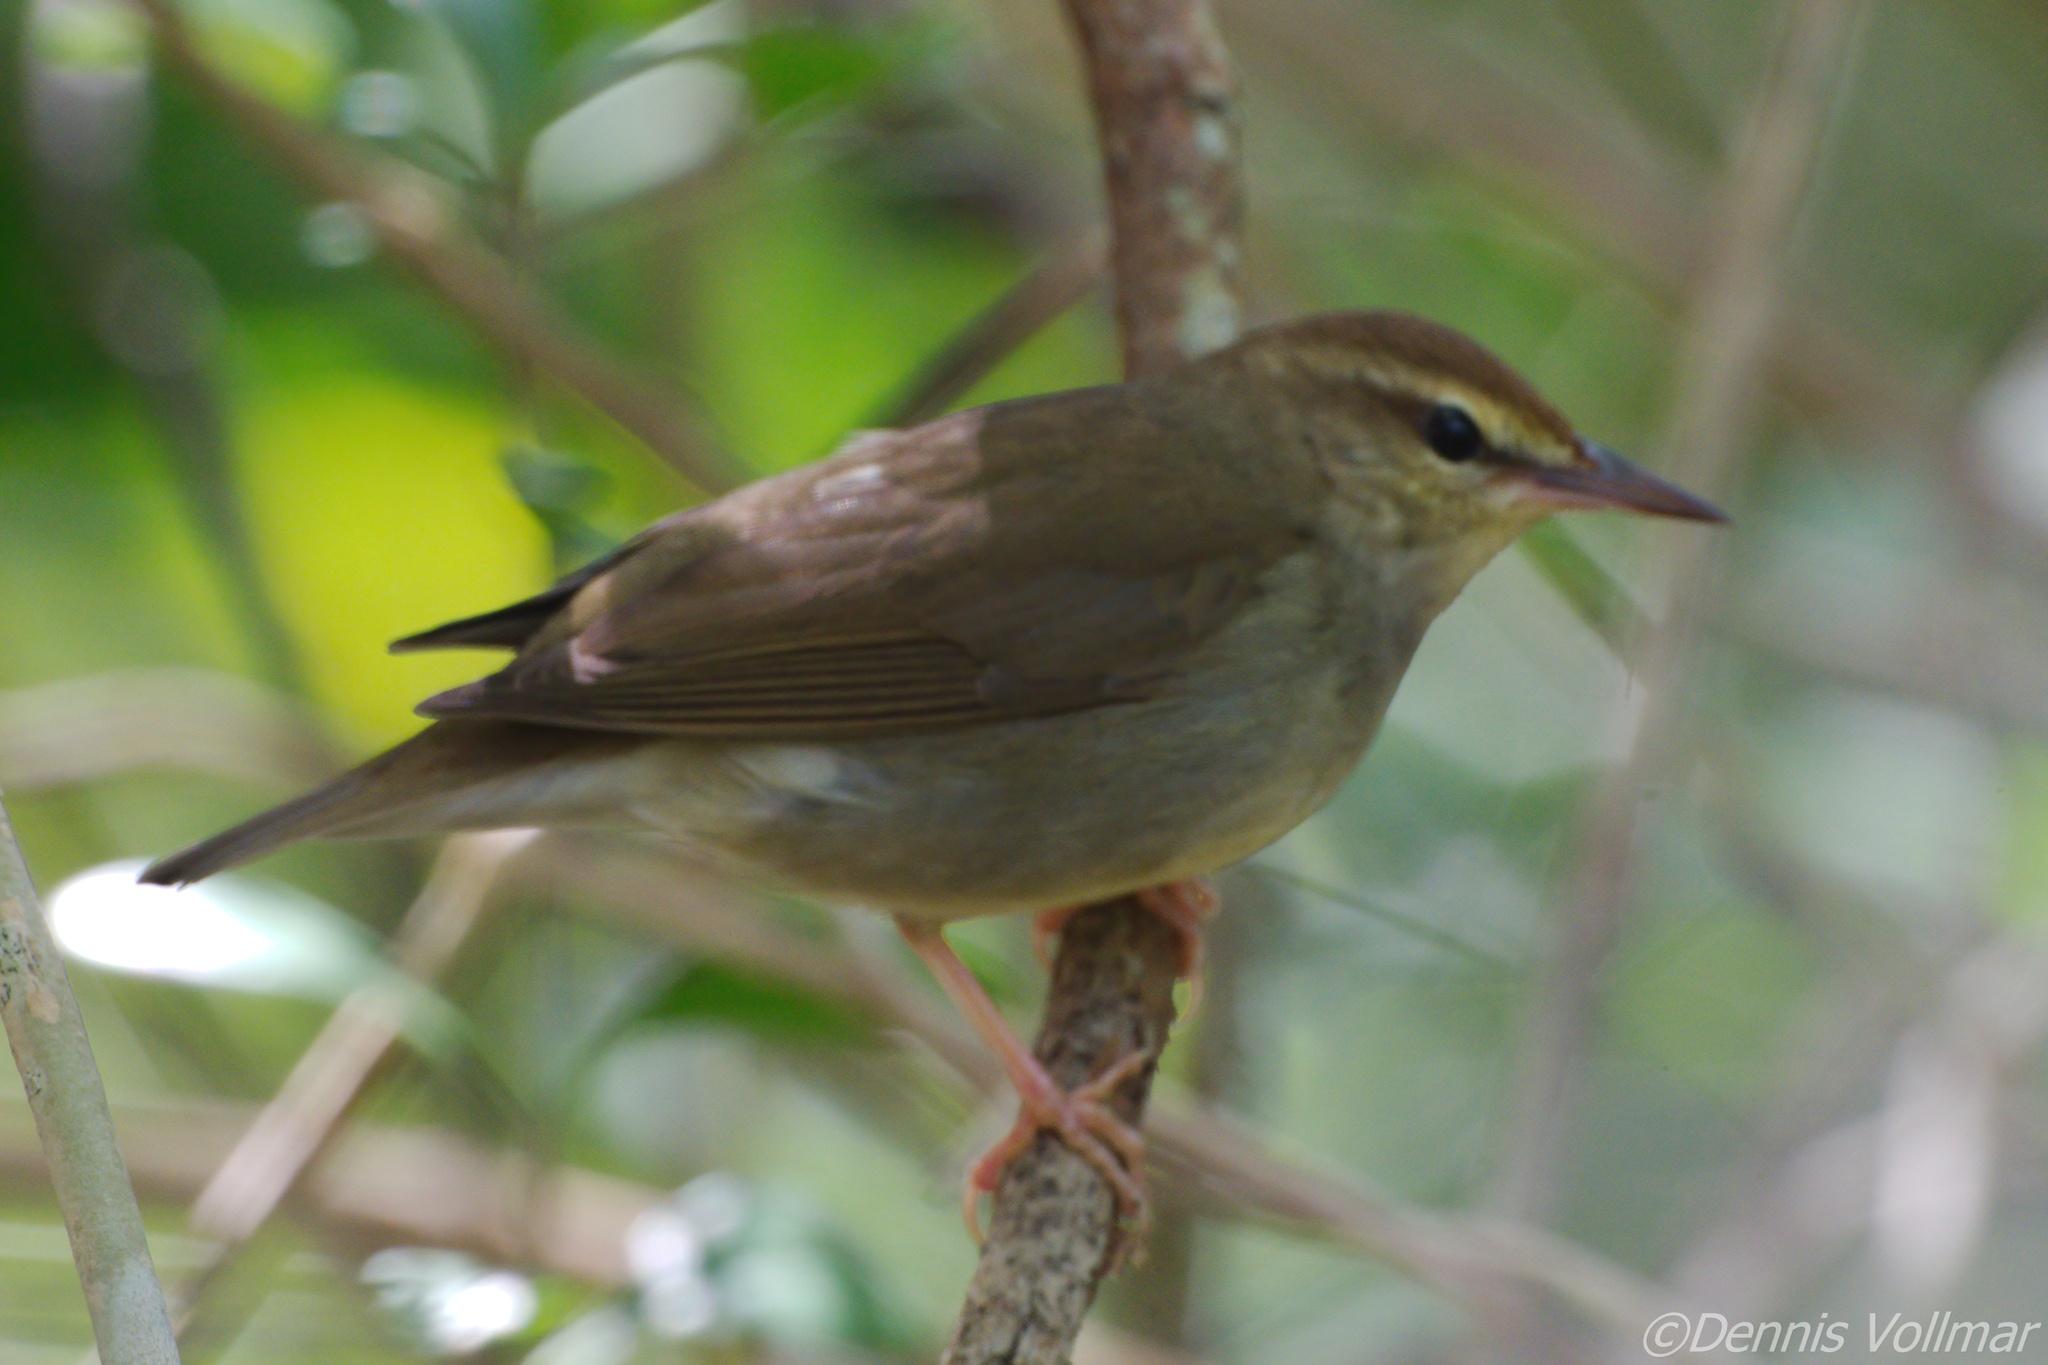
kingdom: Animalia
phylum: Chordata
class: Aves
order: Passeriformes
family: Parulidae
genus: Limnothlypis
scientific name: Limnothlypis swainsonii
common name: Swainson's warbler
